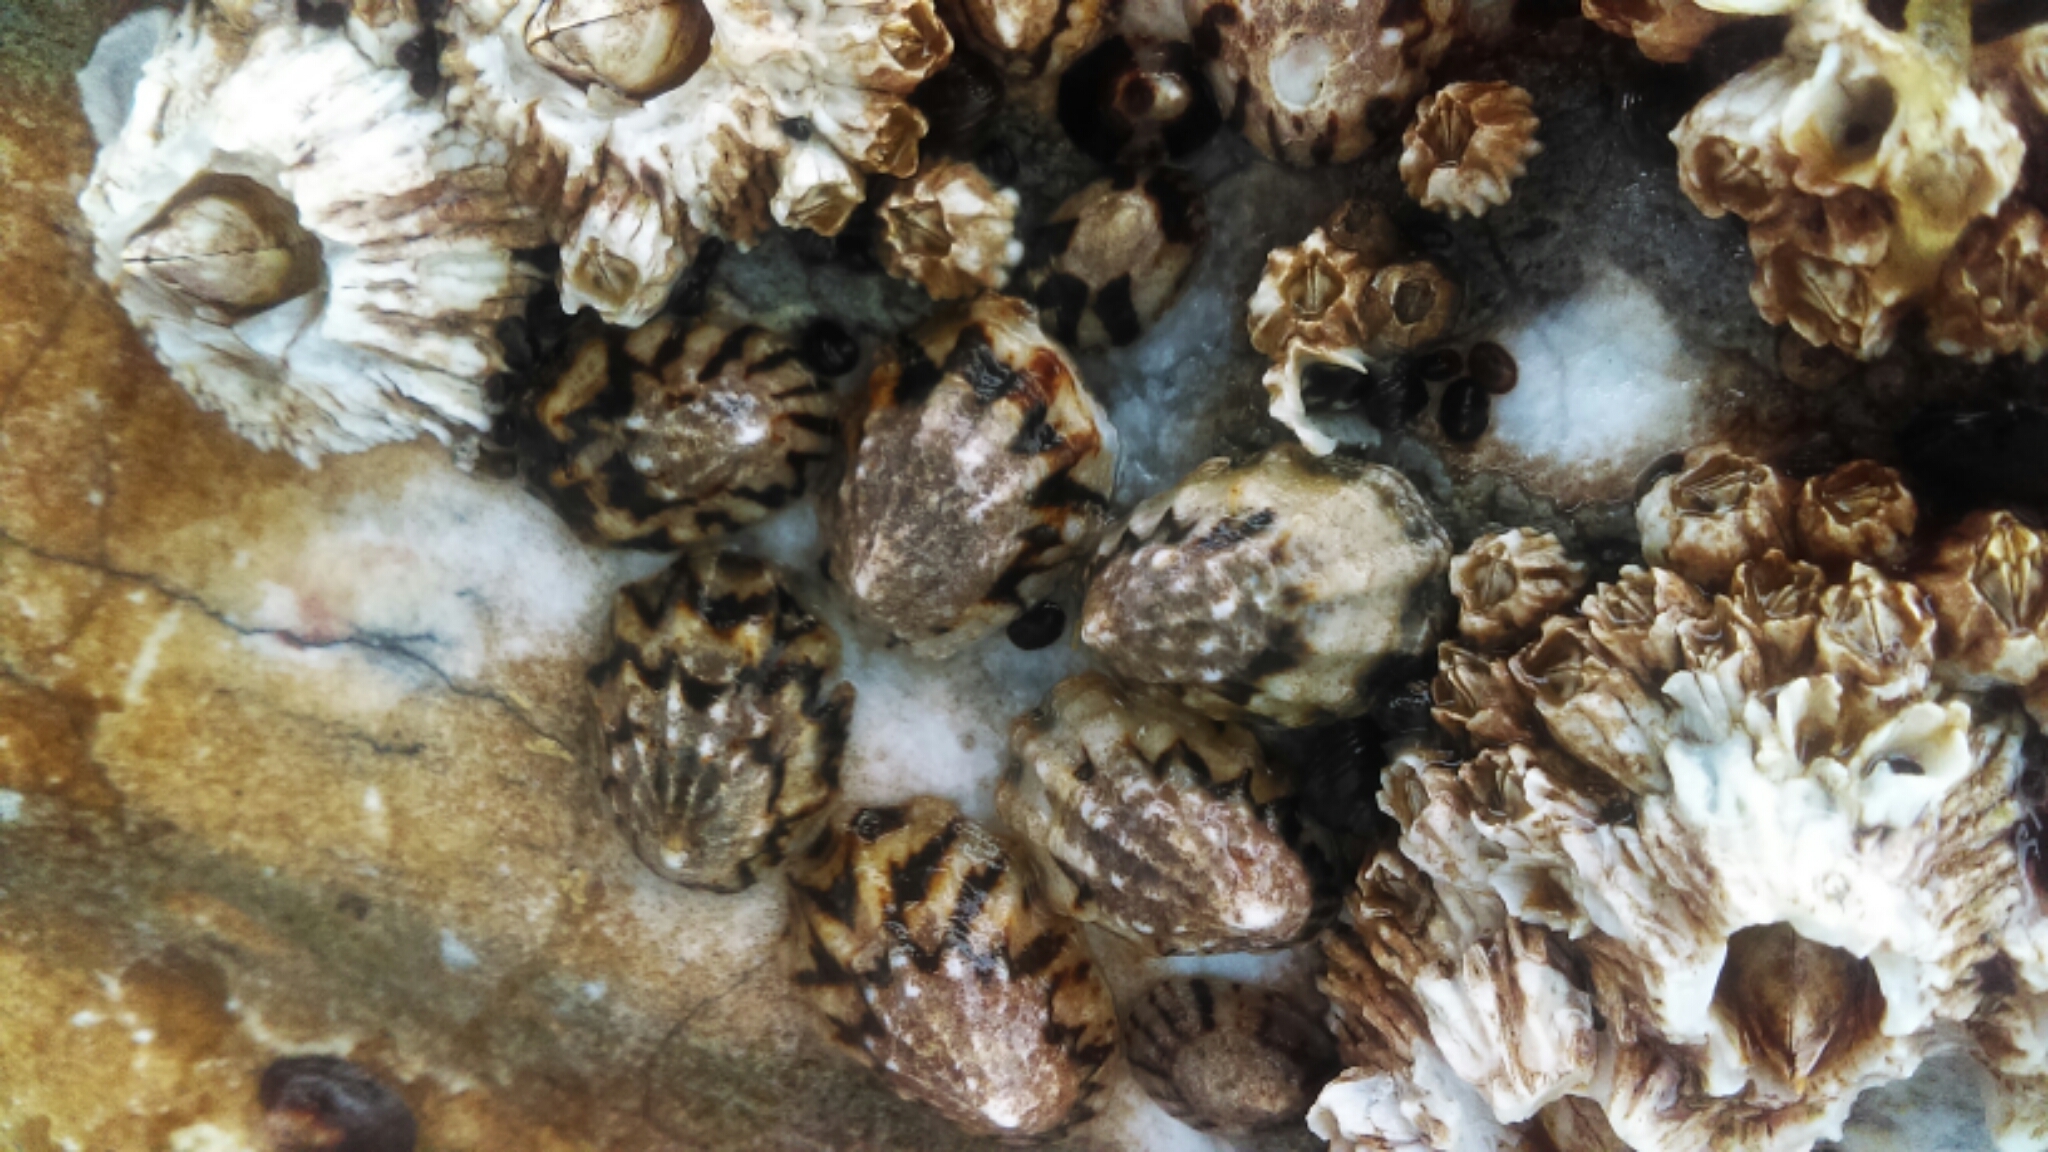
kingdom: Animalia
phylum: Mollusca
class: Gastropoda
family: Lottiidae
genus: Lottia
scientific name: Lottia digitalis
